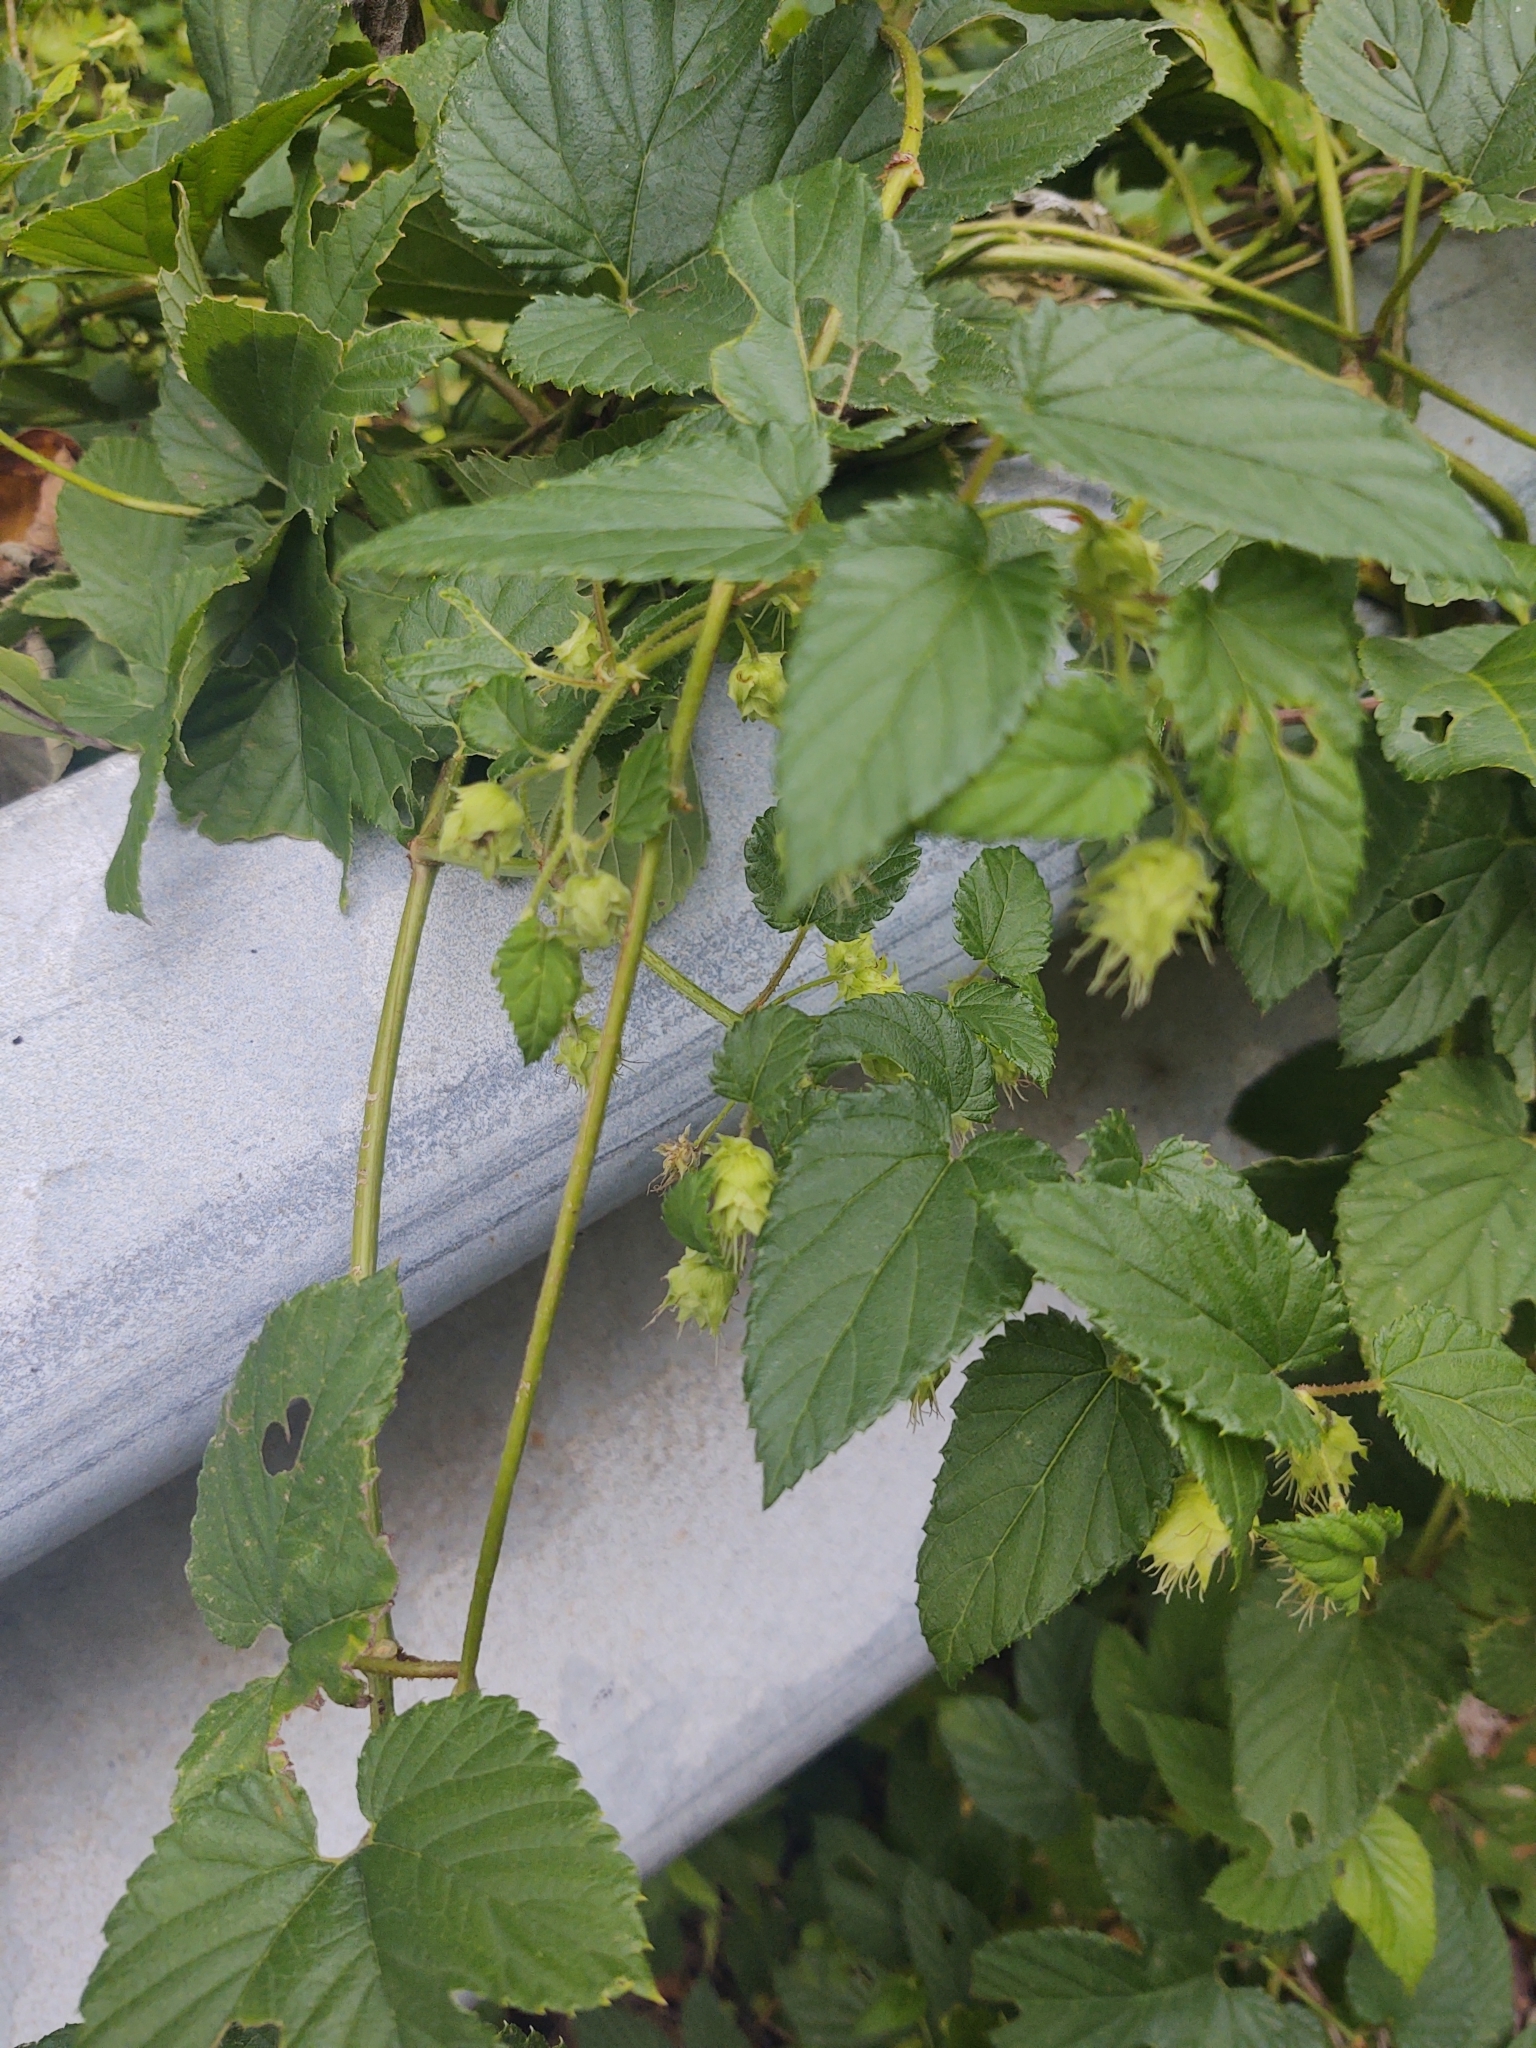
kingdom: Plantae
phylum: Tracheophyta
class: Magnoliopsida
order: Rosales
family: Cannabaceae
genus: Humulus
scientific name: Humulus lupulus
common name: Hop
